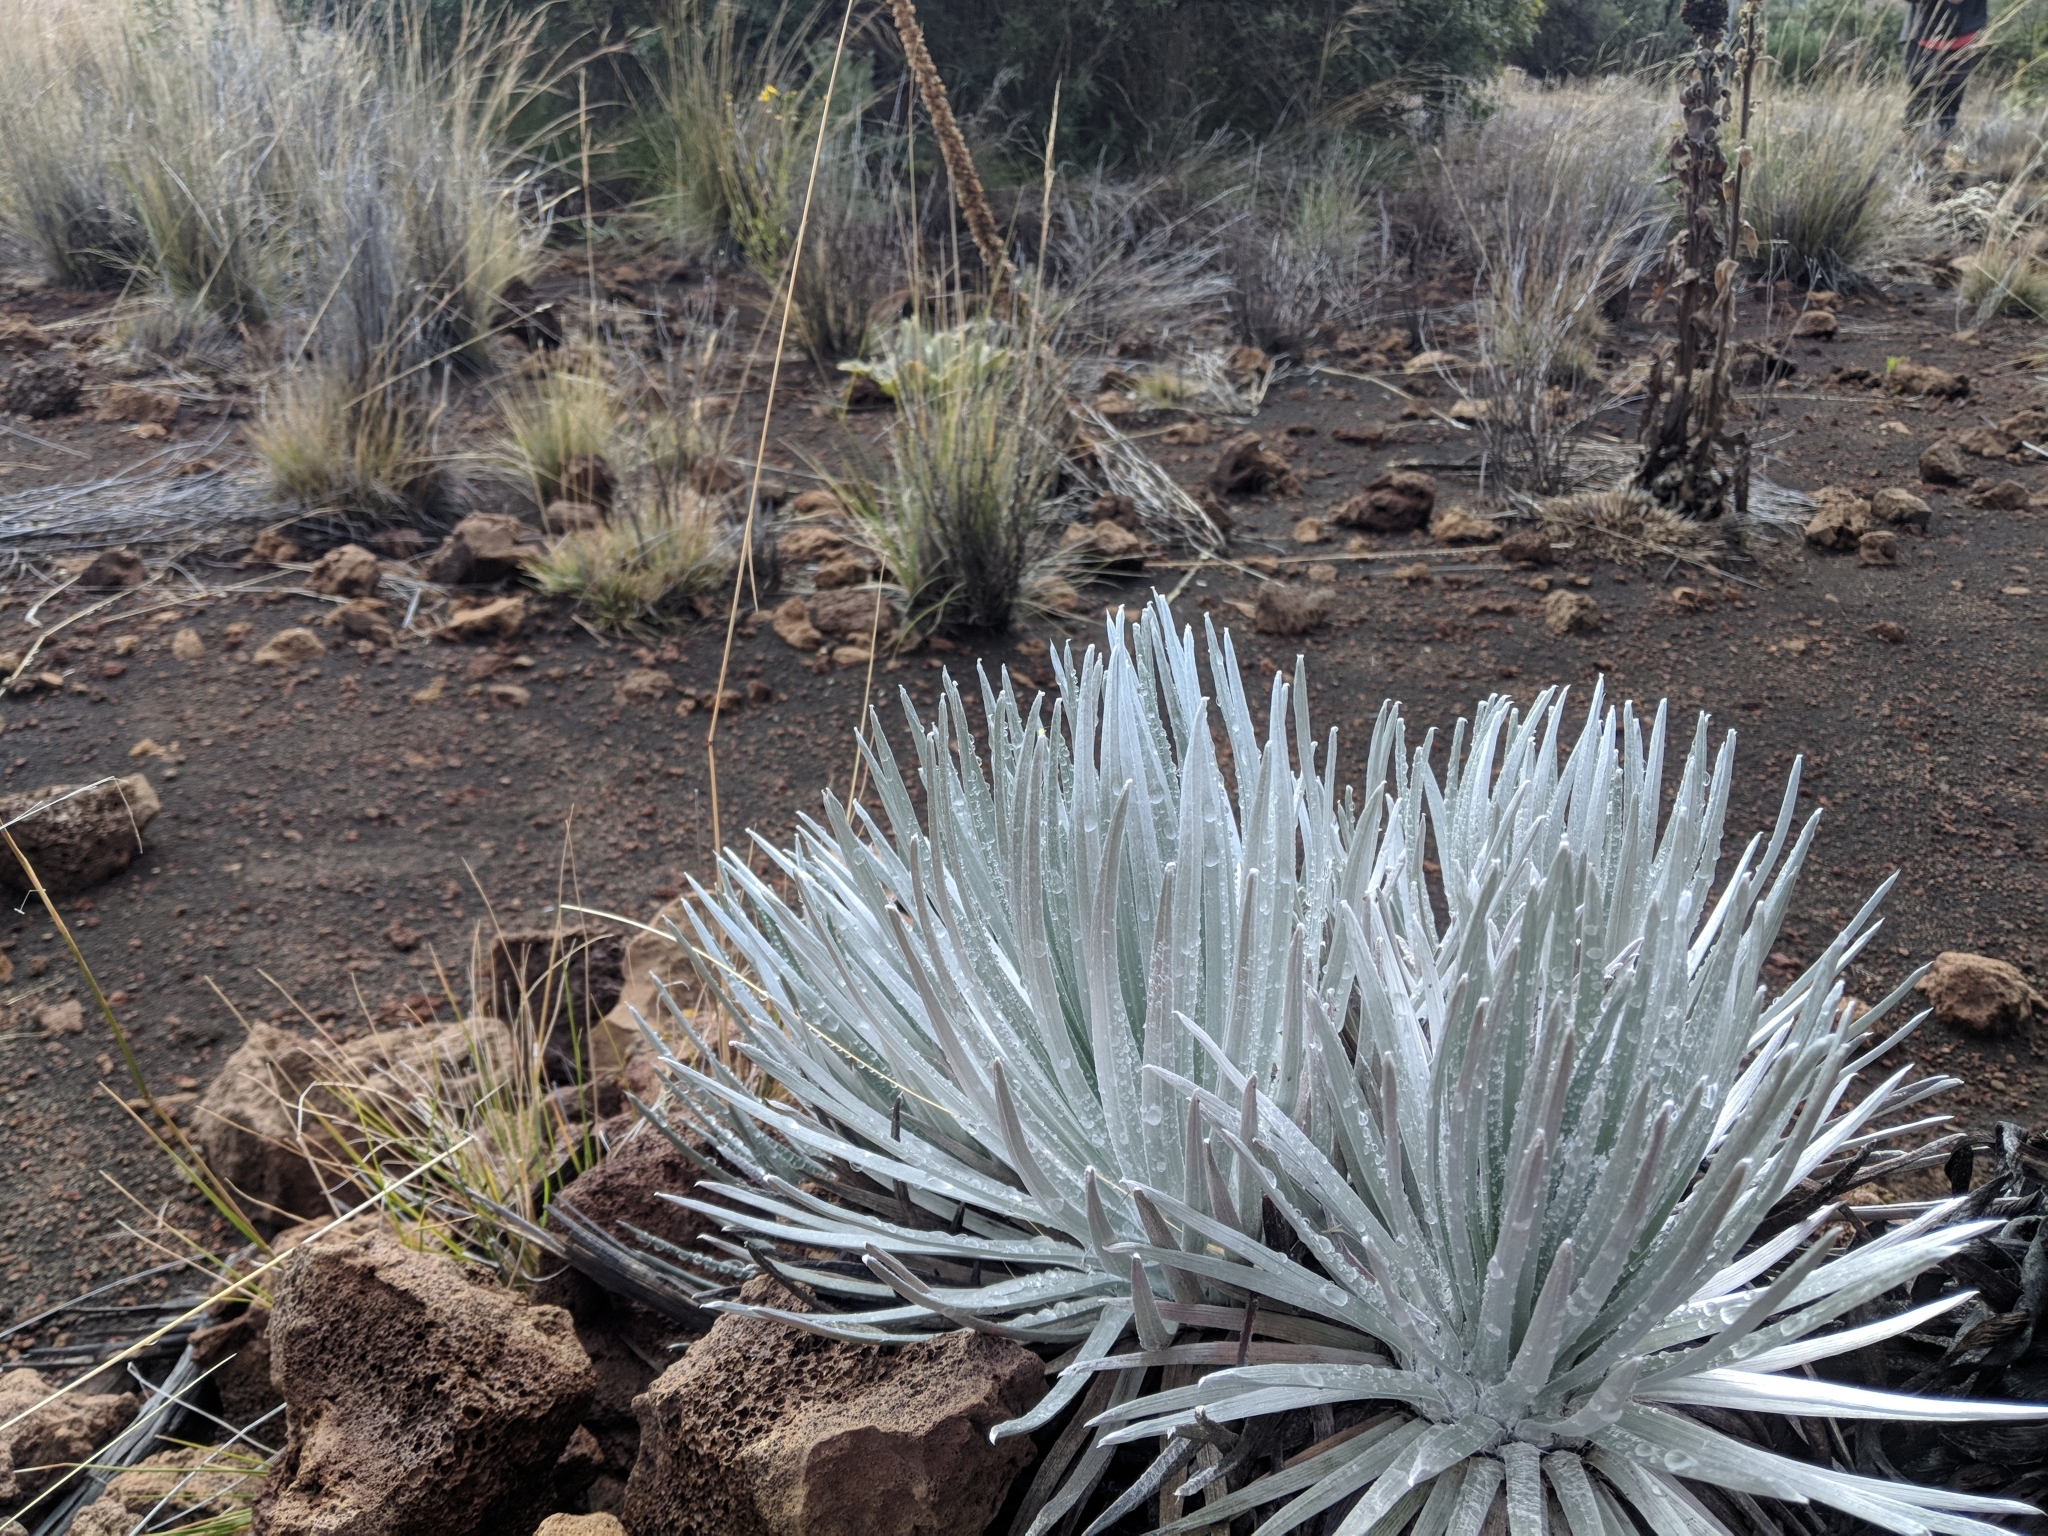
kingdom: Plantae
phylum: Tracheophyta
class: Magnoliopsida
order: Asterales
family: Asteraceae
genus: Argyroxiphium
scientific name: Argyroxiphium sandwicense
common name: Silversword
